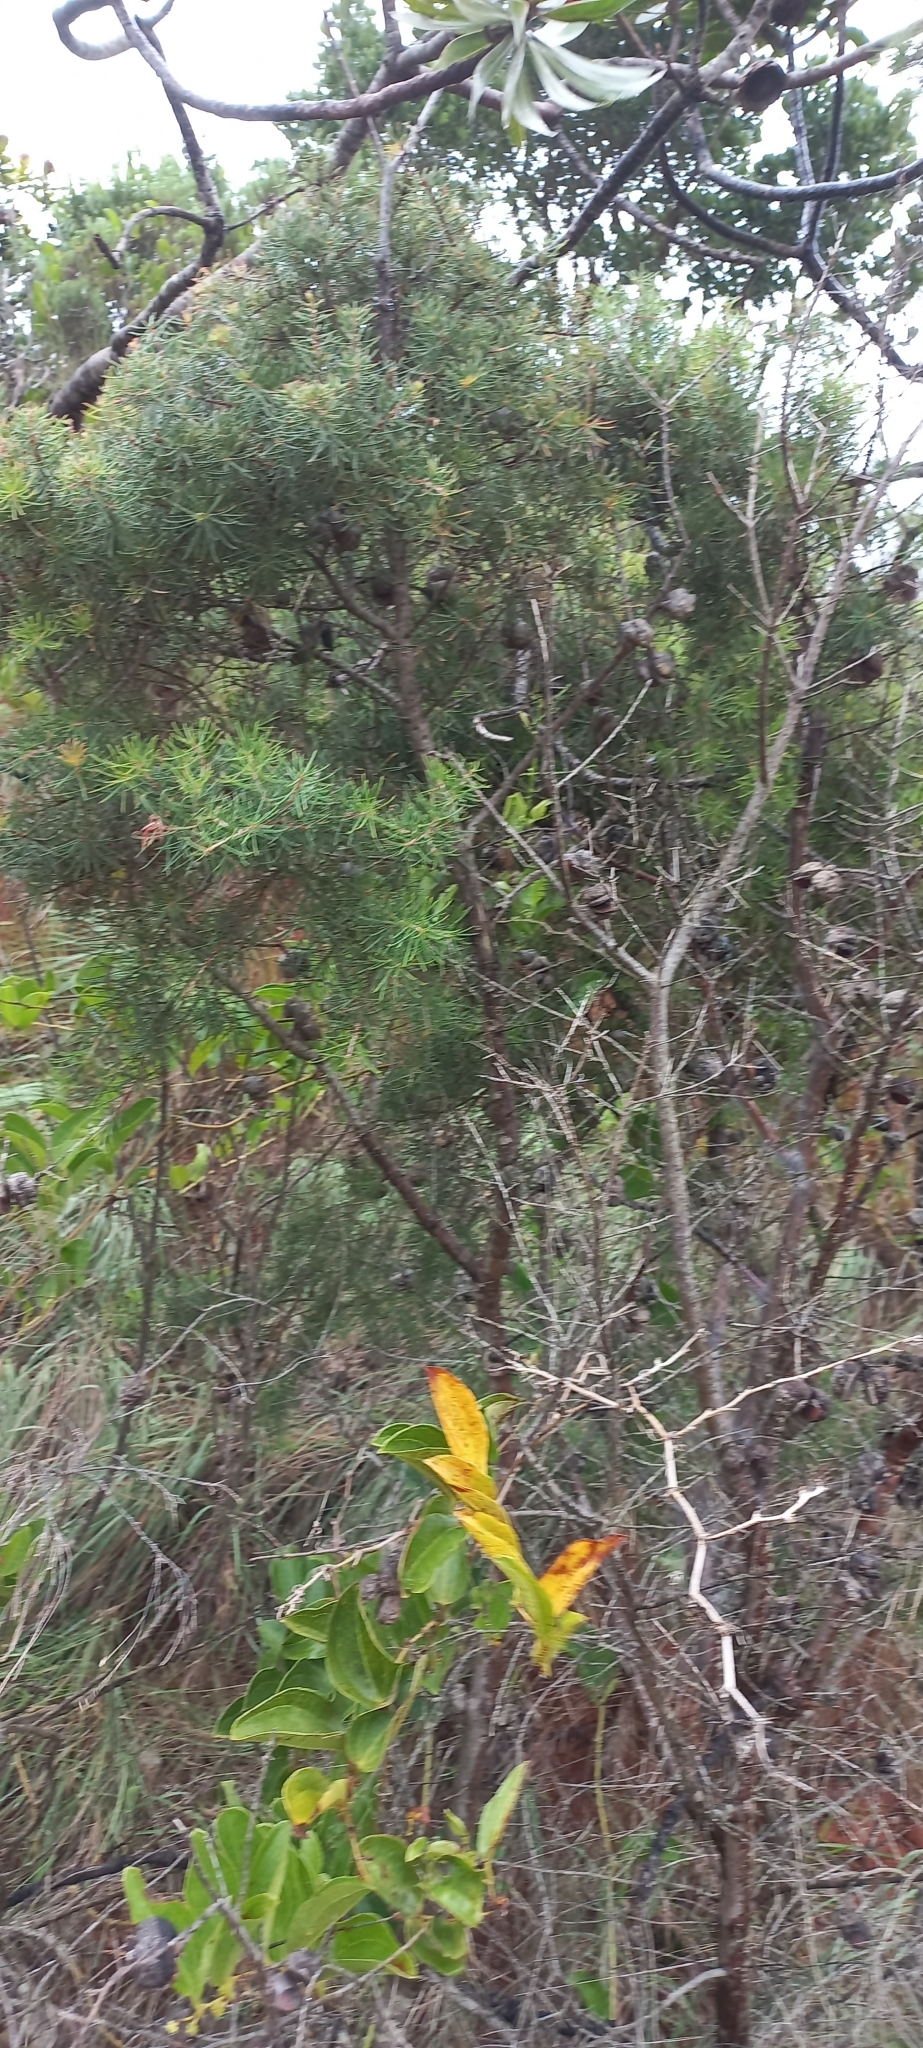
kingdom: Plantae
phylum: Tracheophyta
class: Magnoliopsida
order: Proteales
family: Proteaceae
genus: Hakea
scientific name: Hakea sericea
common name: Needle bush
